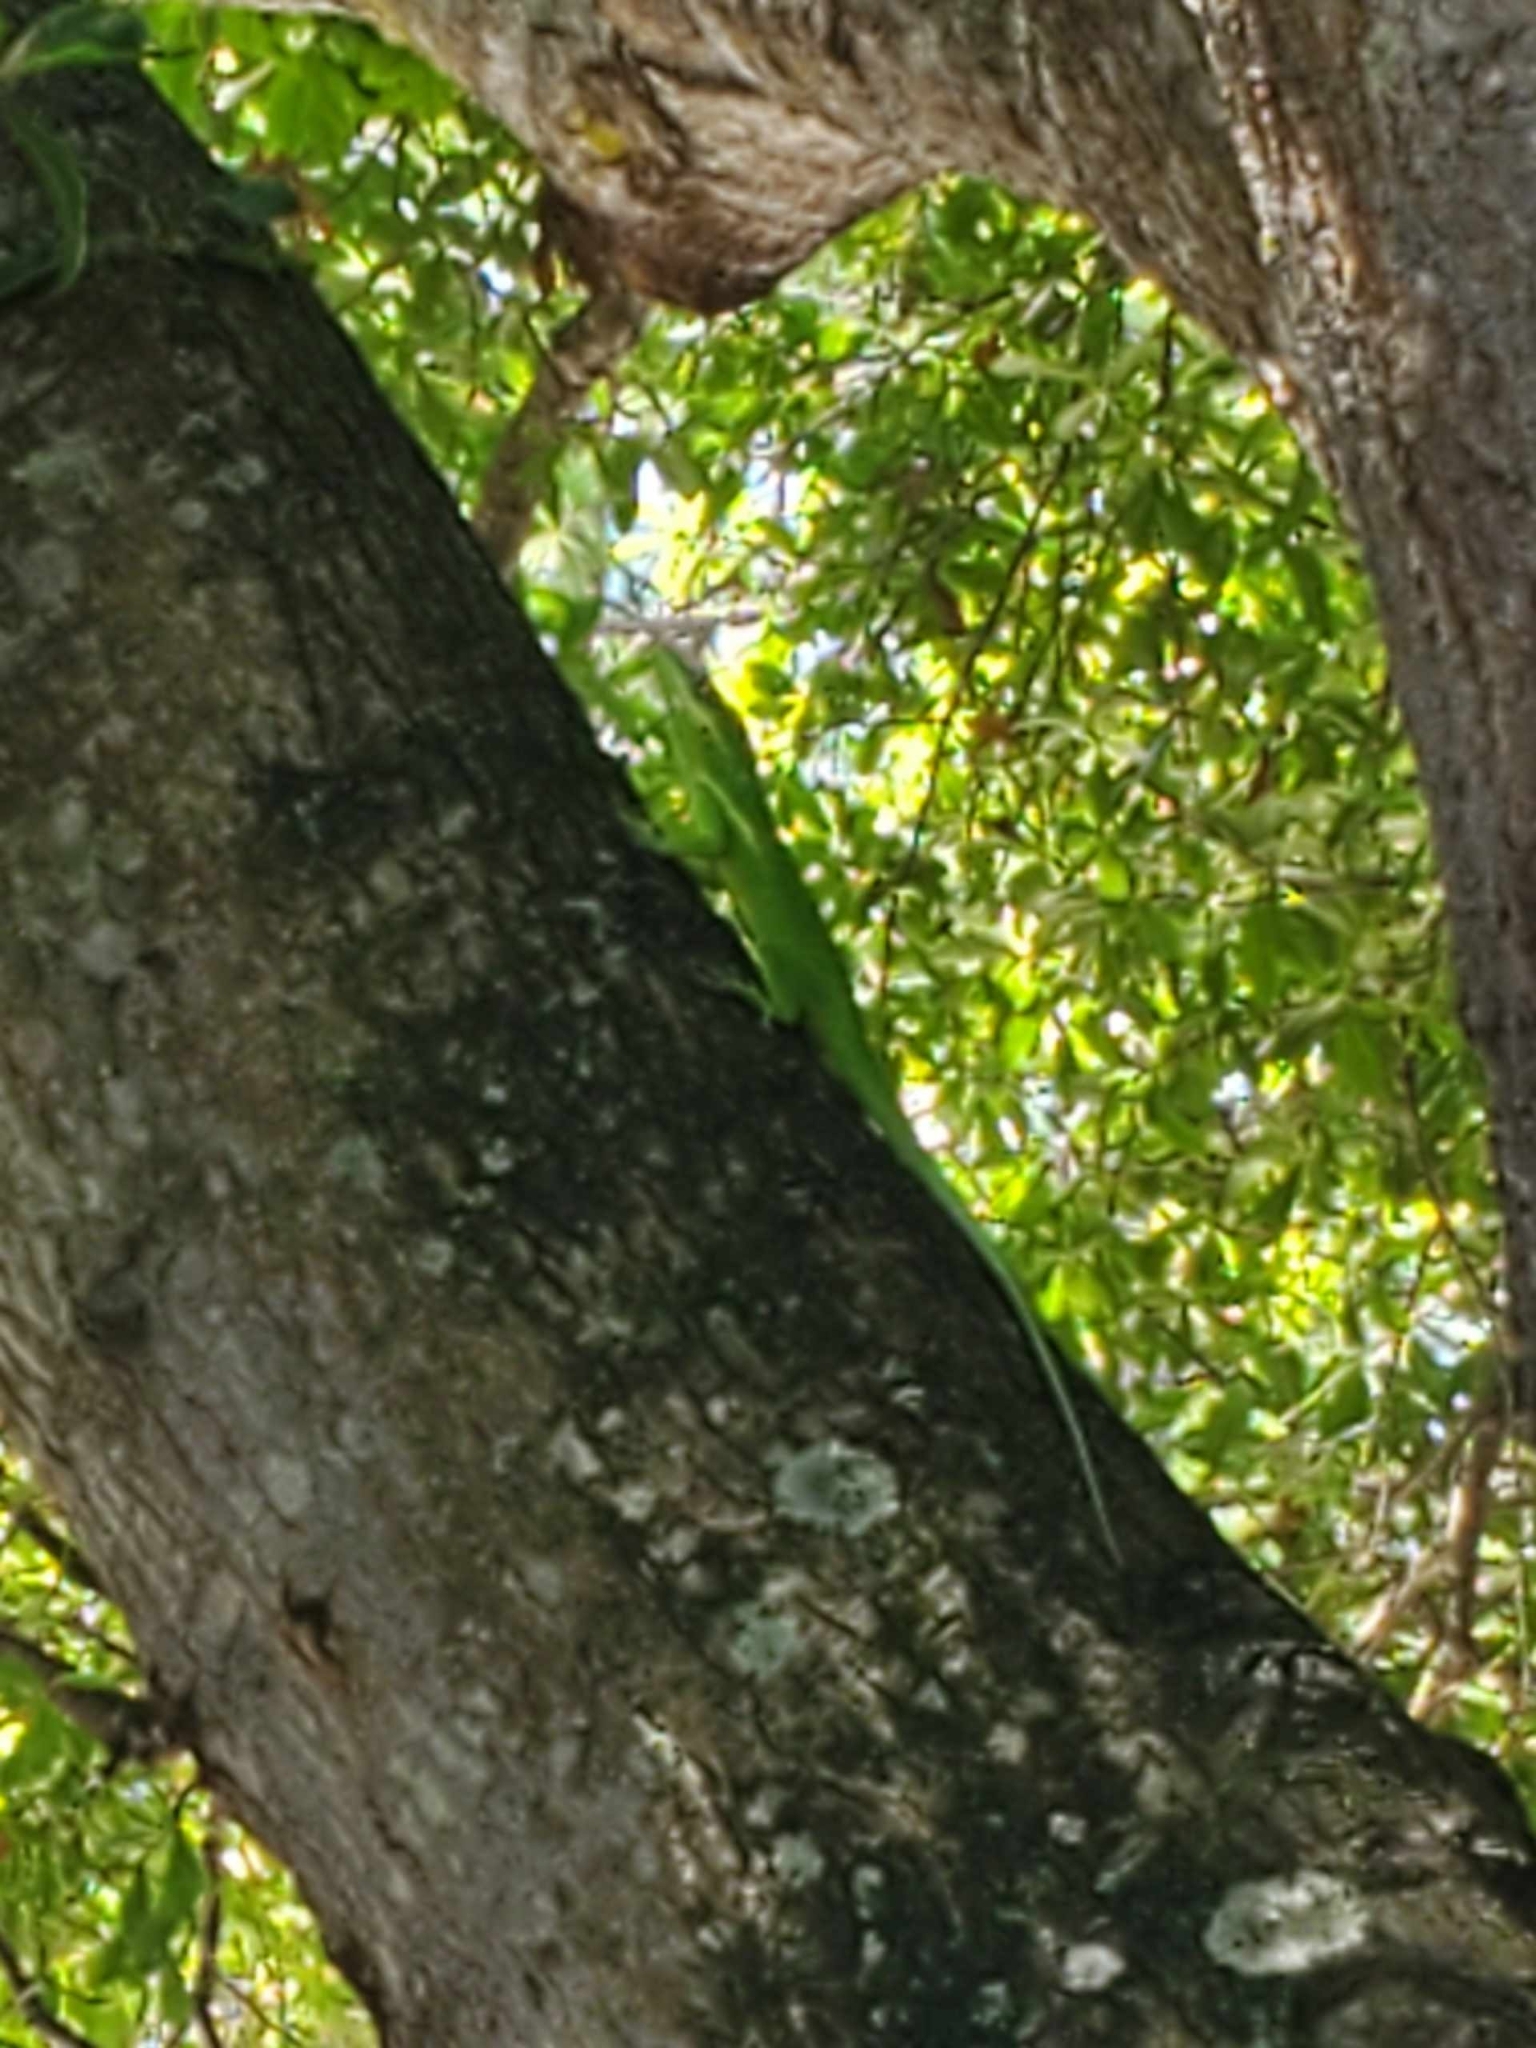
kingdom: Animalia
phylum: Chordata
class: Squamata
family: Dactyloidae
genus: Anolis
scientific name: Anolis equestris
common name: Knight anole
